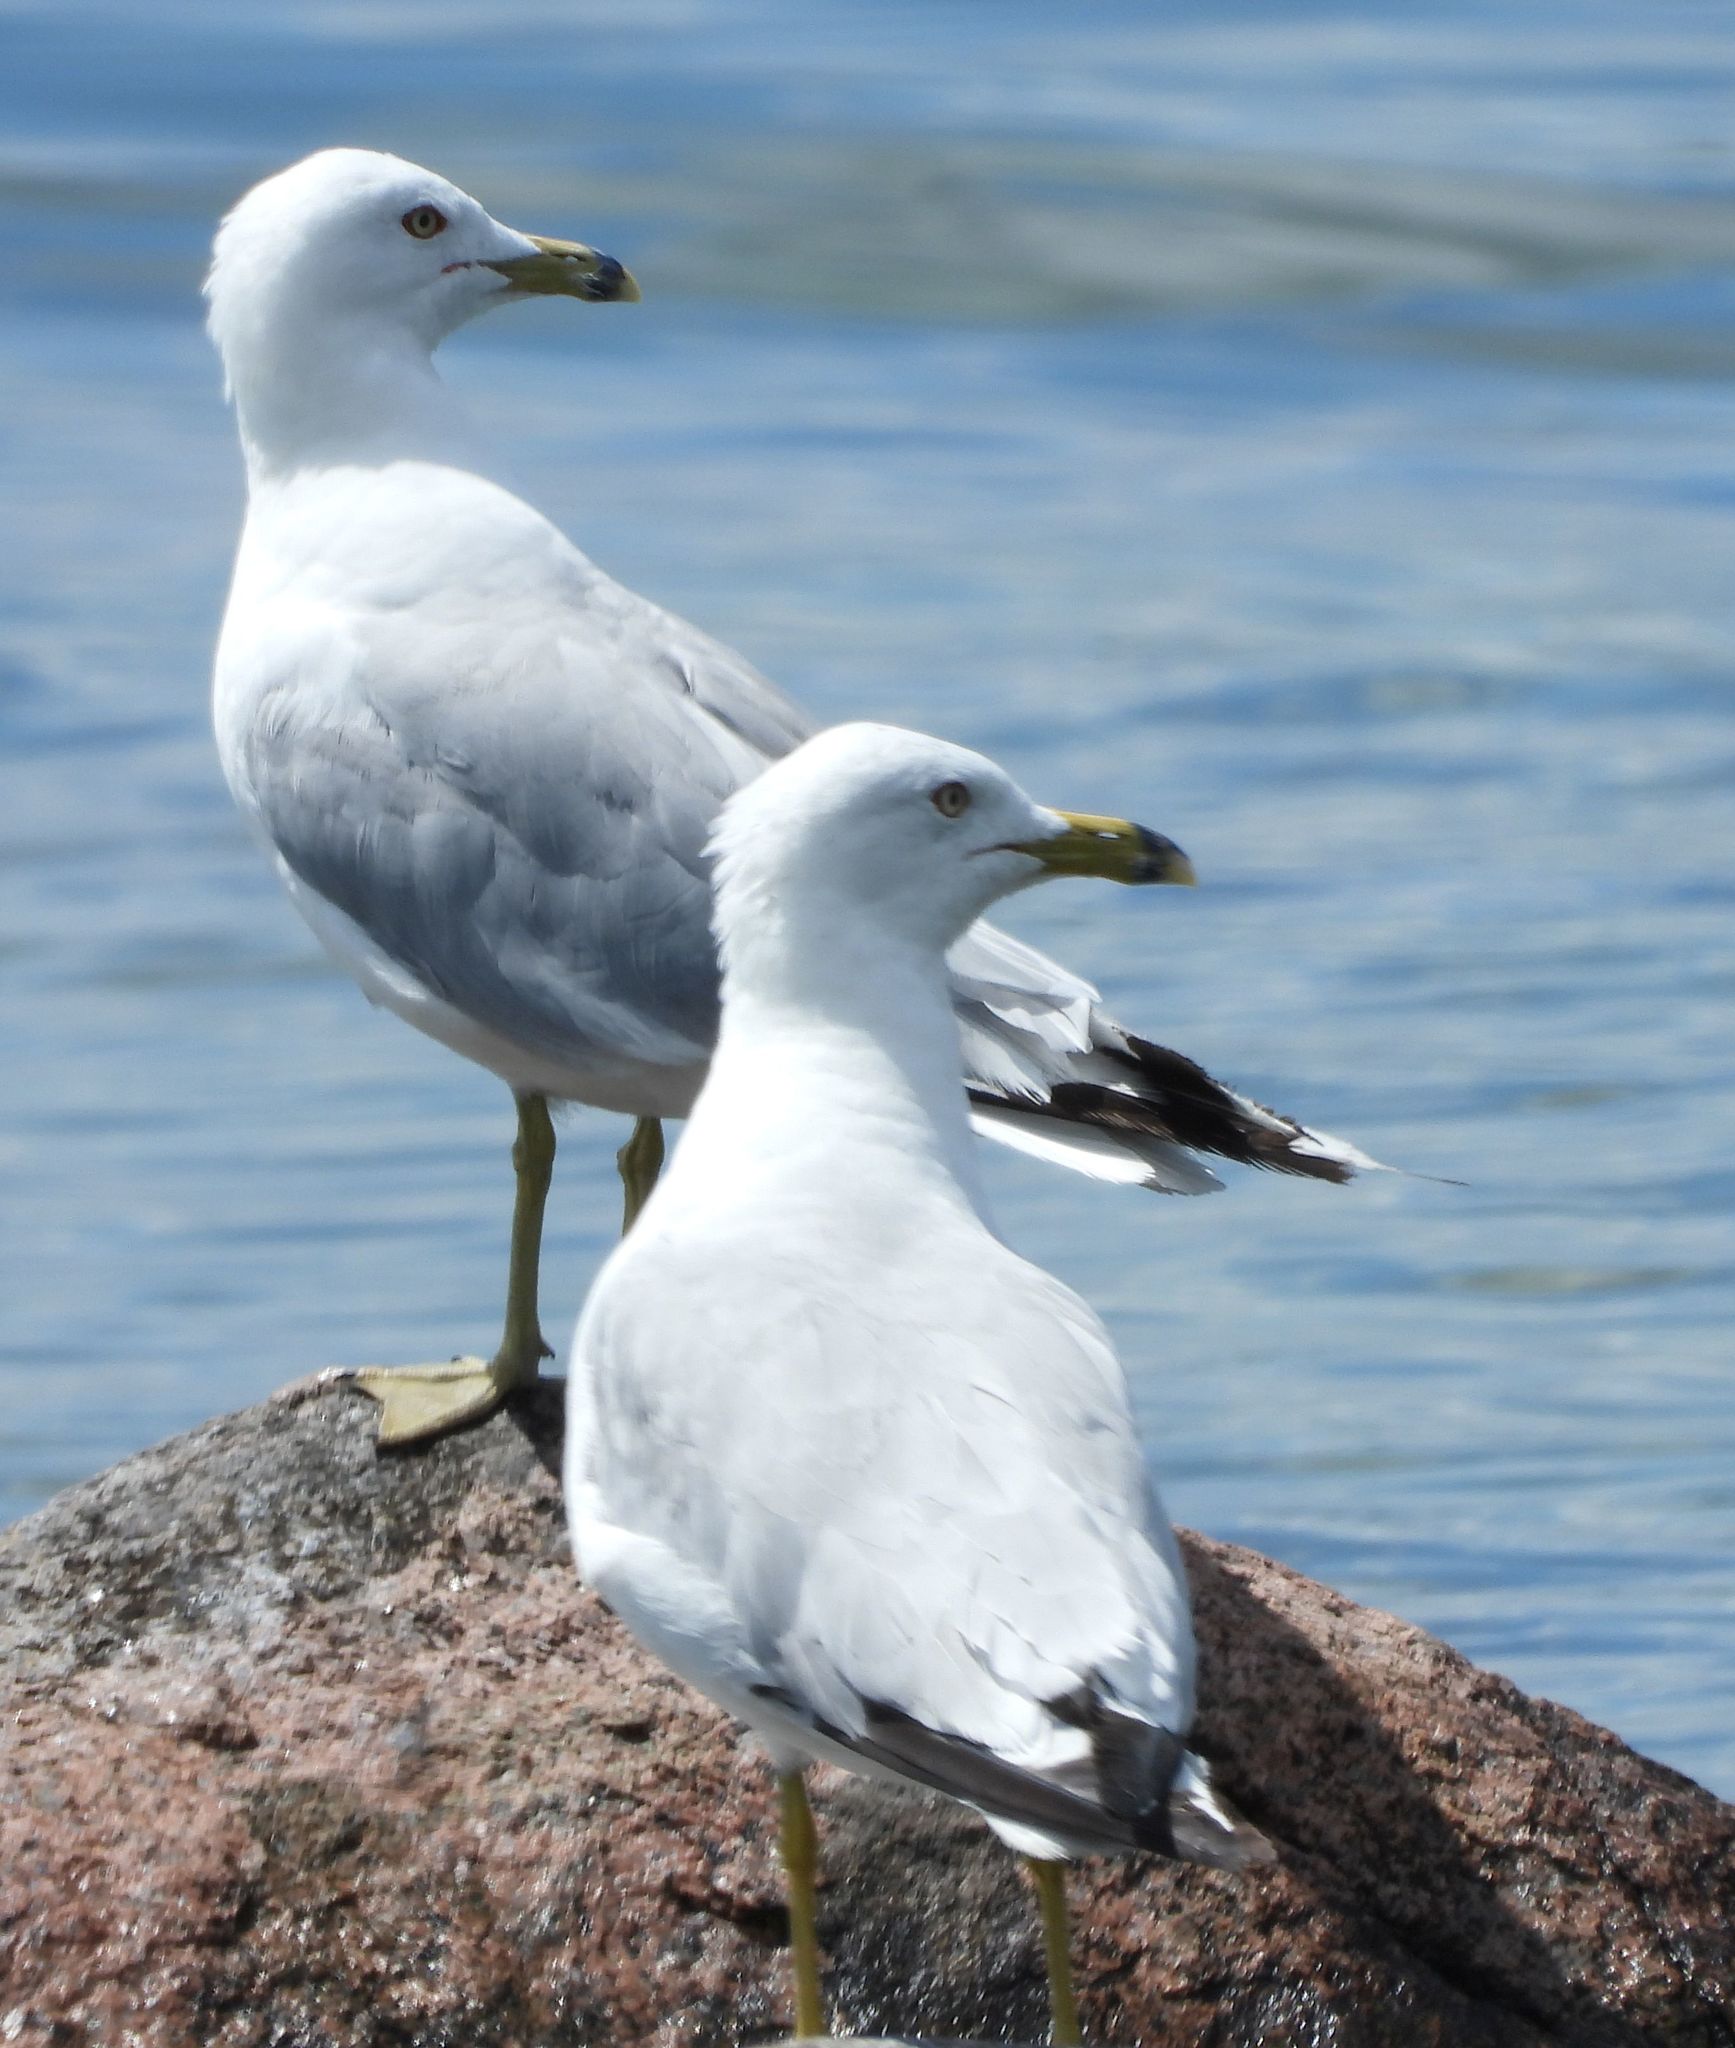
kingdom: Animalia
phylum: Chordata
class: Aves
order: Charadriiformes
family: Laridae
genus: Larus
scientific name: Larus delawarensis
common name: Ring-billed gull
